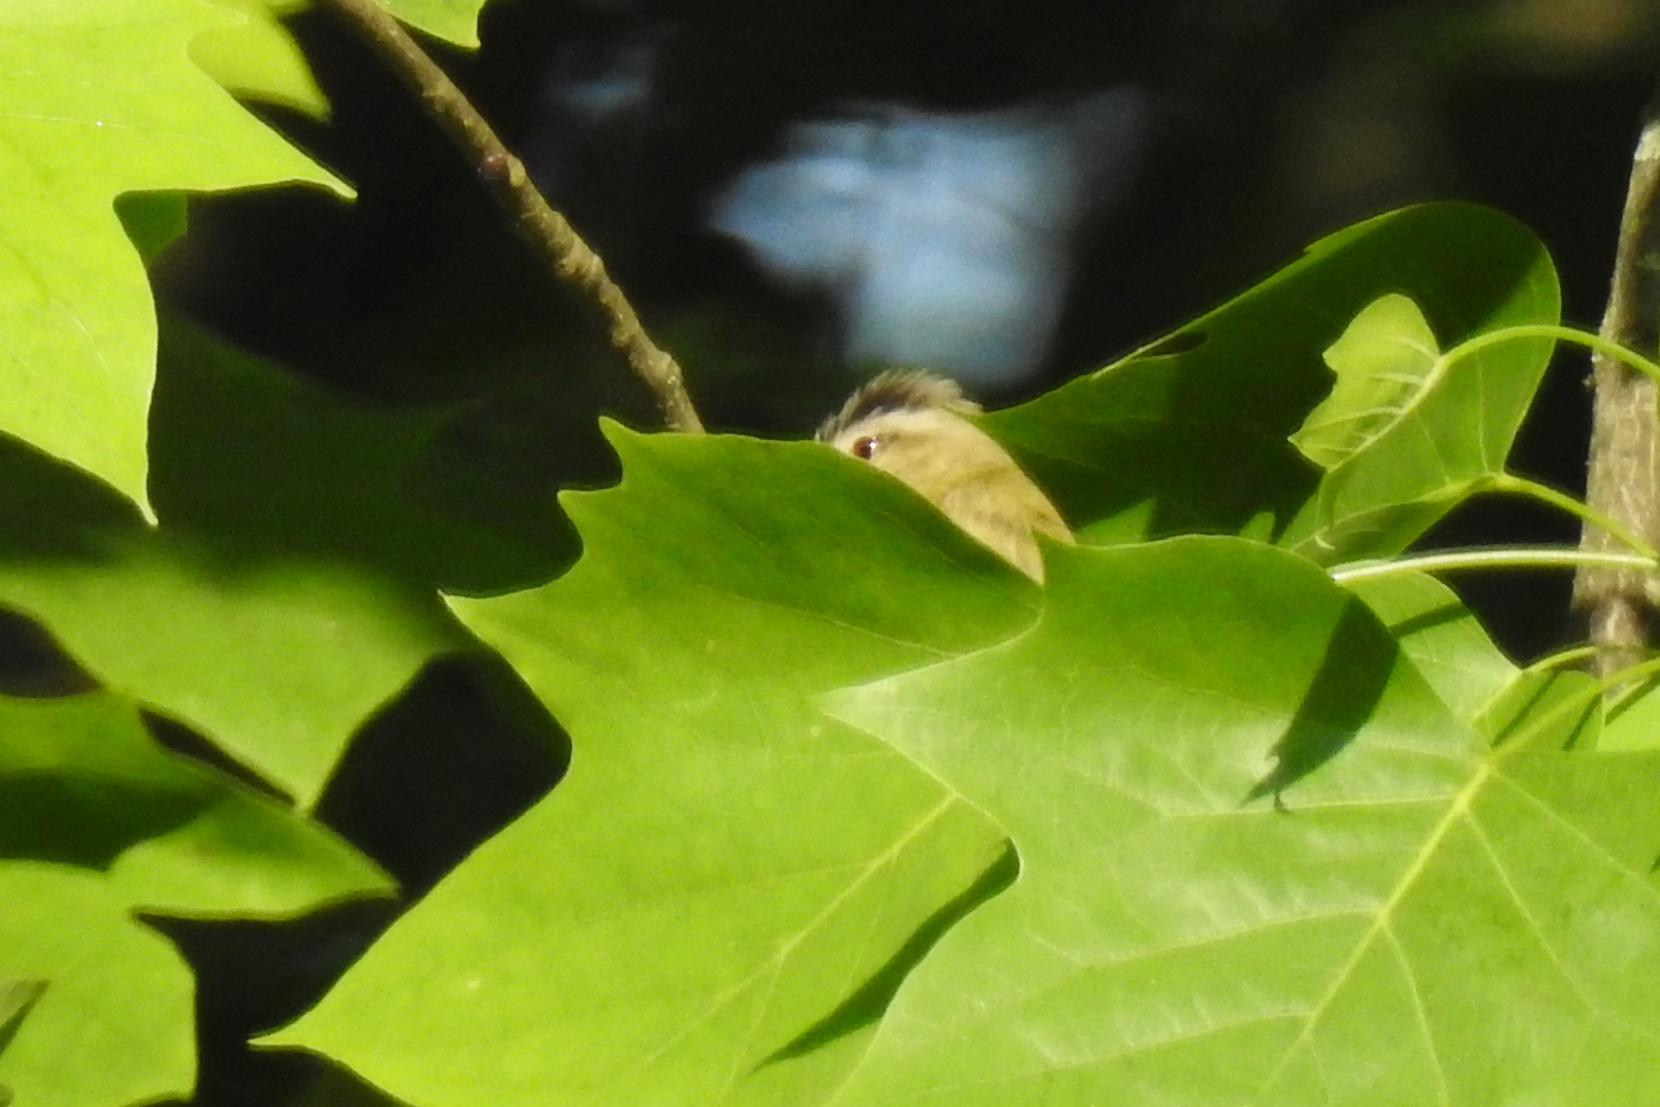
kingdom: Animalia
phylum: Chordata
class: Aves
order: Passeriformes
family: Vireonidae
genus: Vireo
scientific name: Vireo olivaceus
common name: Red-eyed vireo
